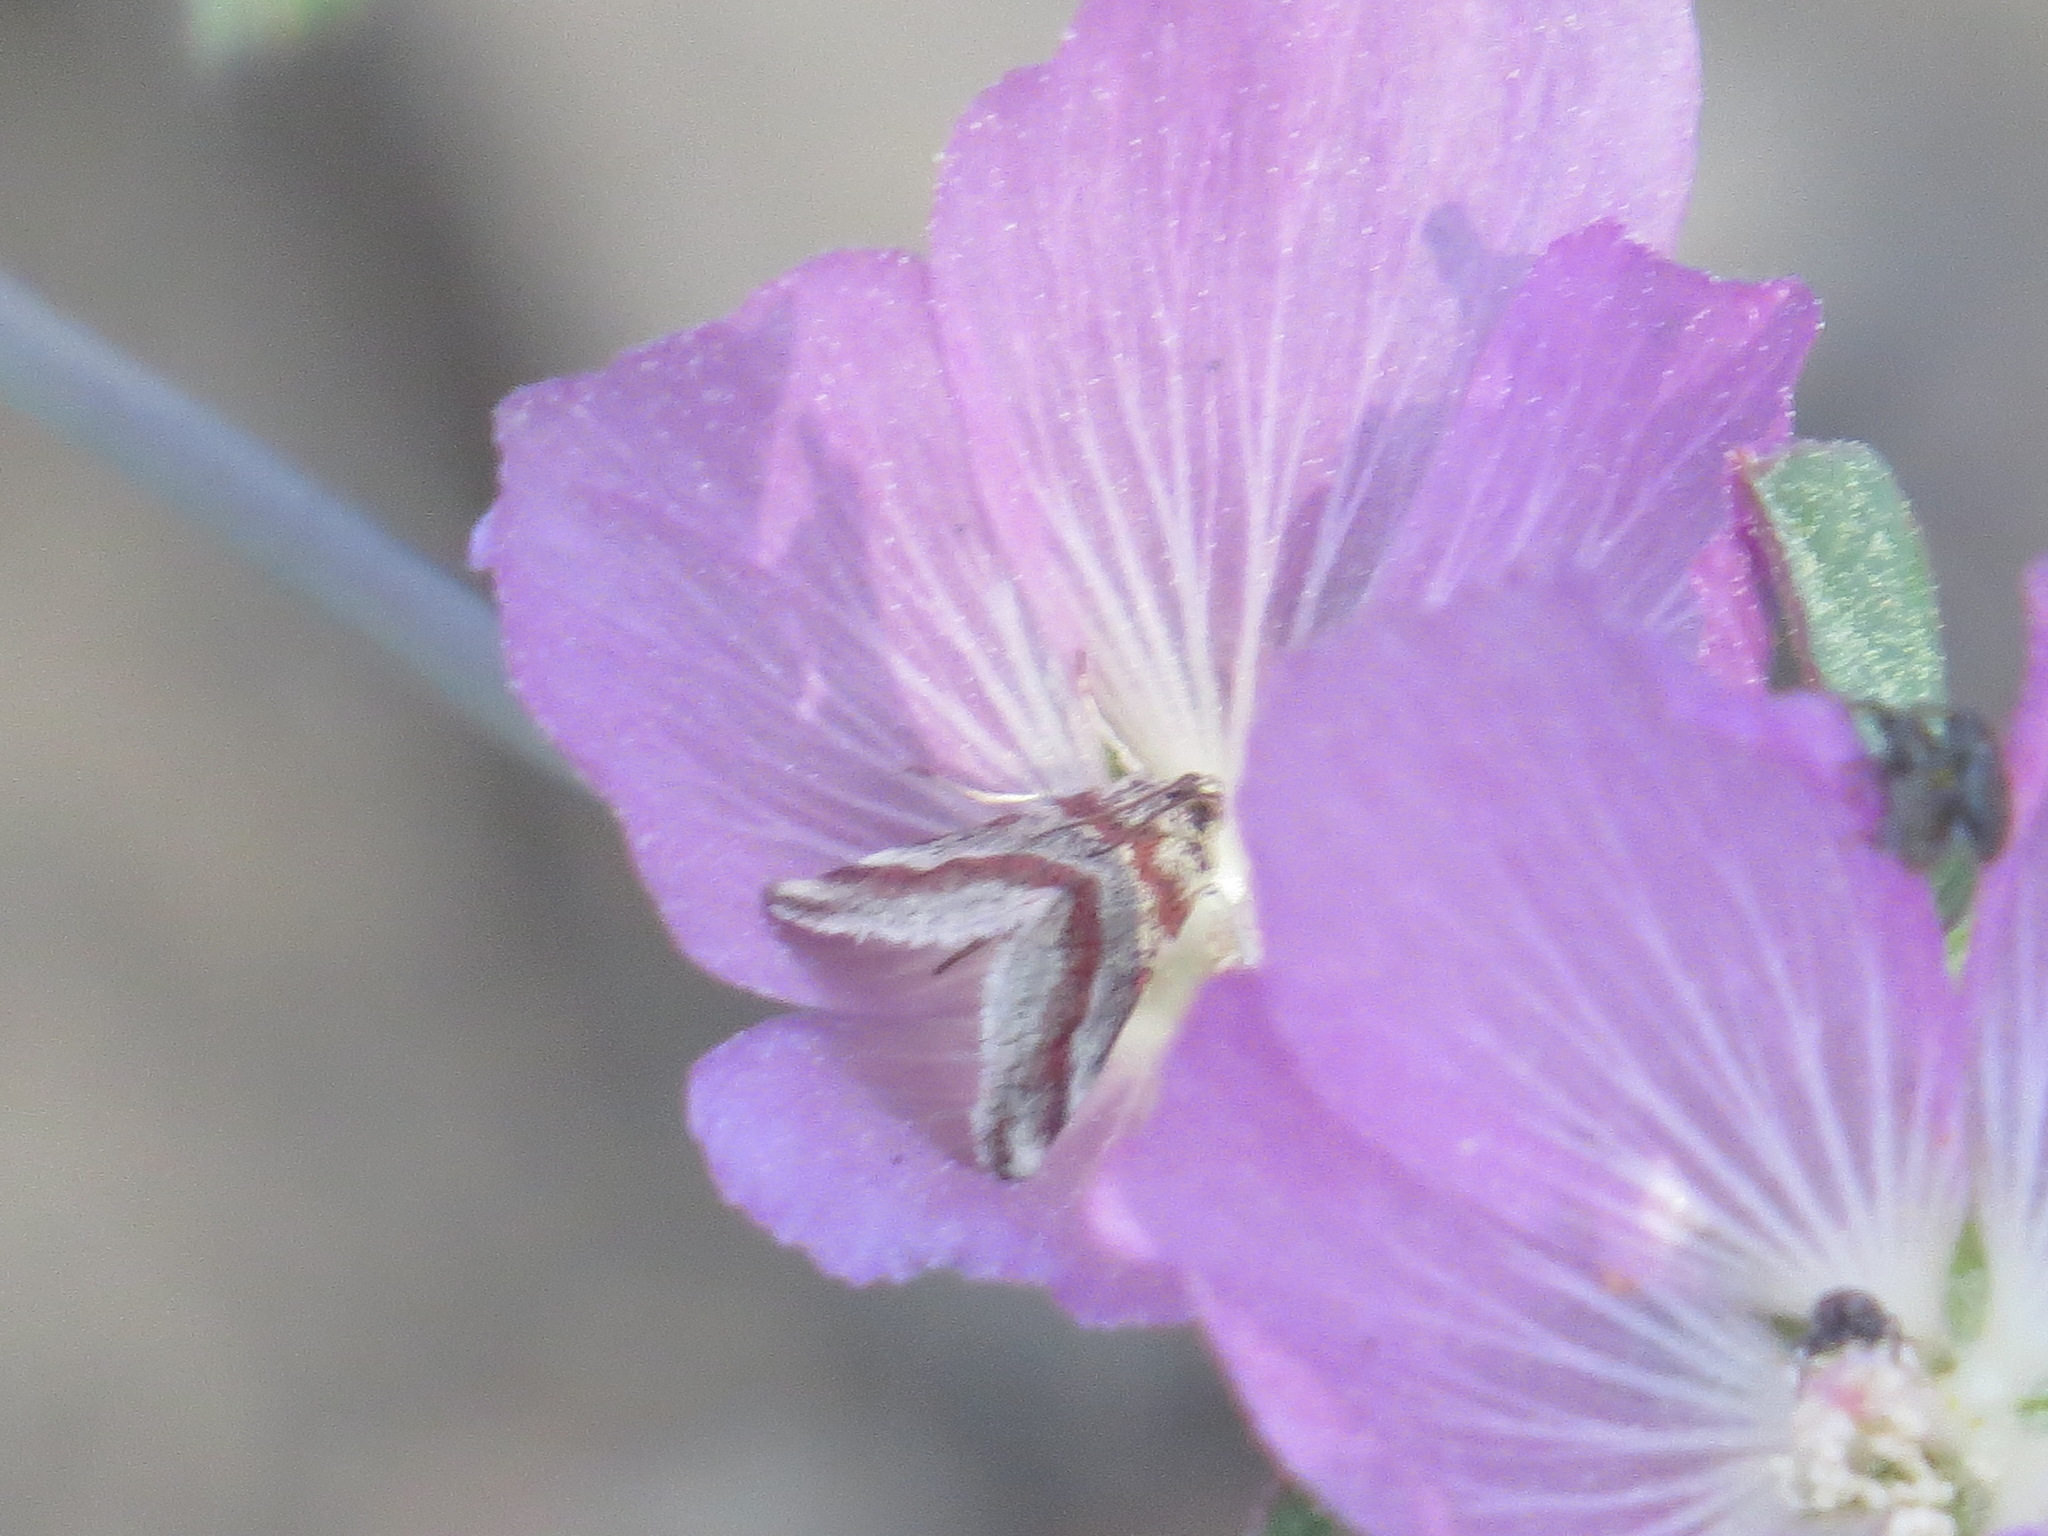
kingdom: Animalia
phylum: Arthropoda
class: Insecta
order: Lepidoptera
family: Crambidae
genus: Noctuelia
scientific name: Noctuelia Mimoschinia rufofascialis
